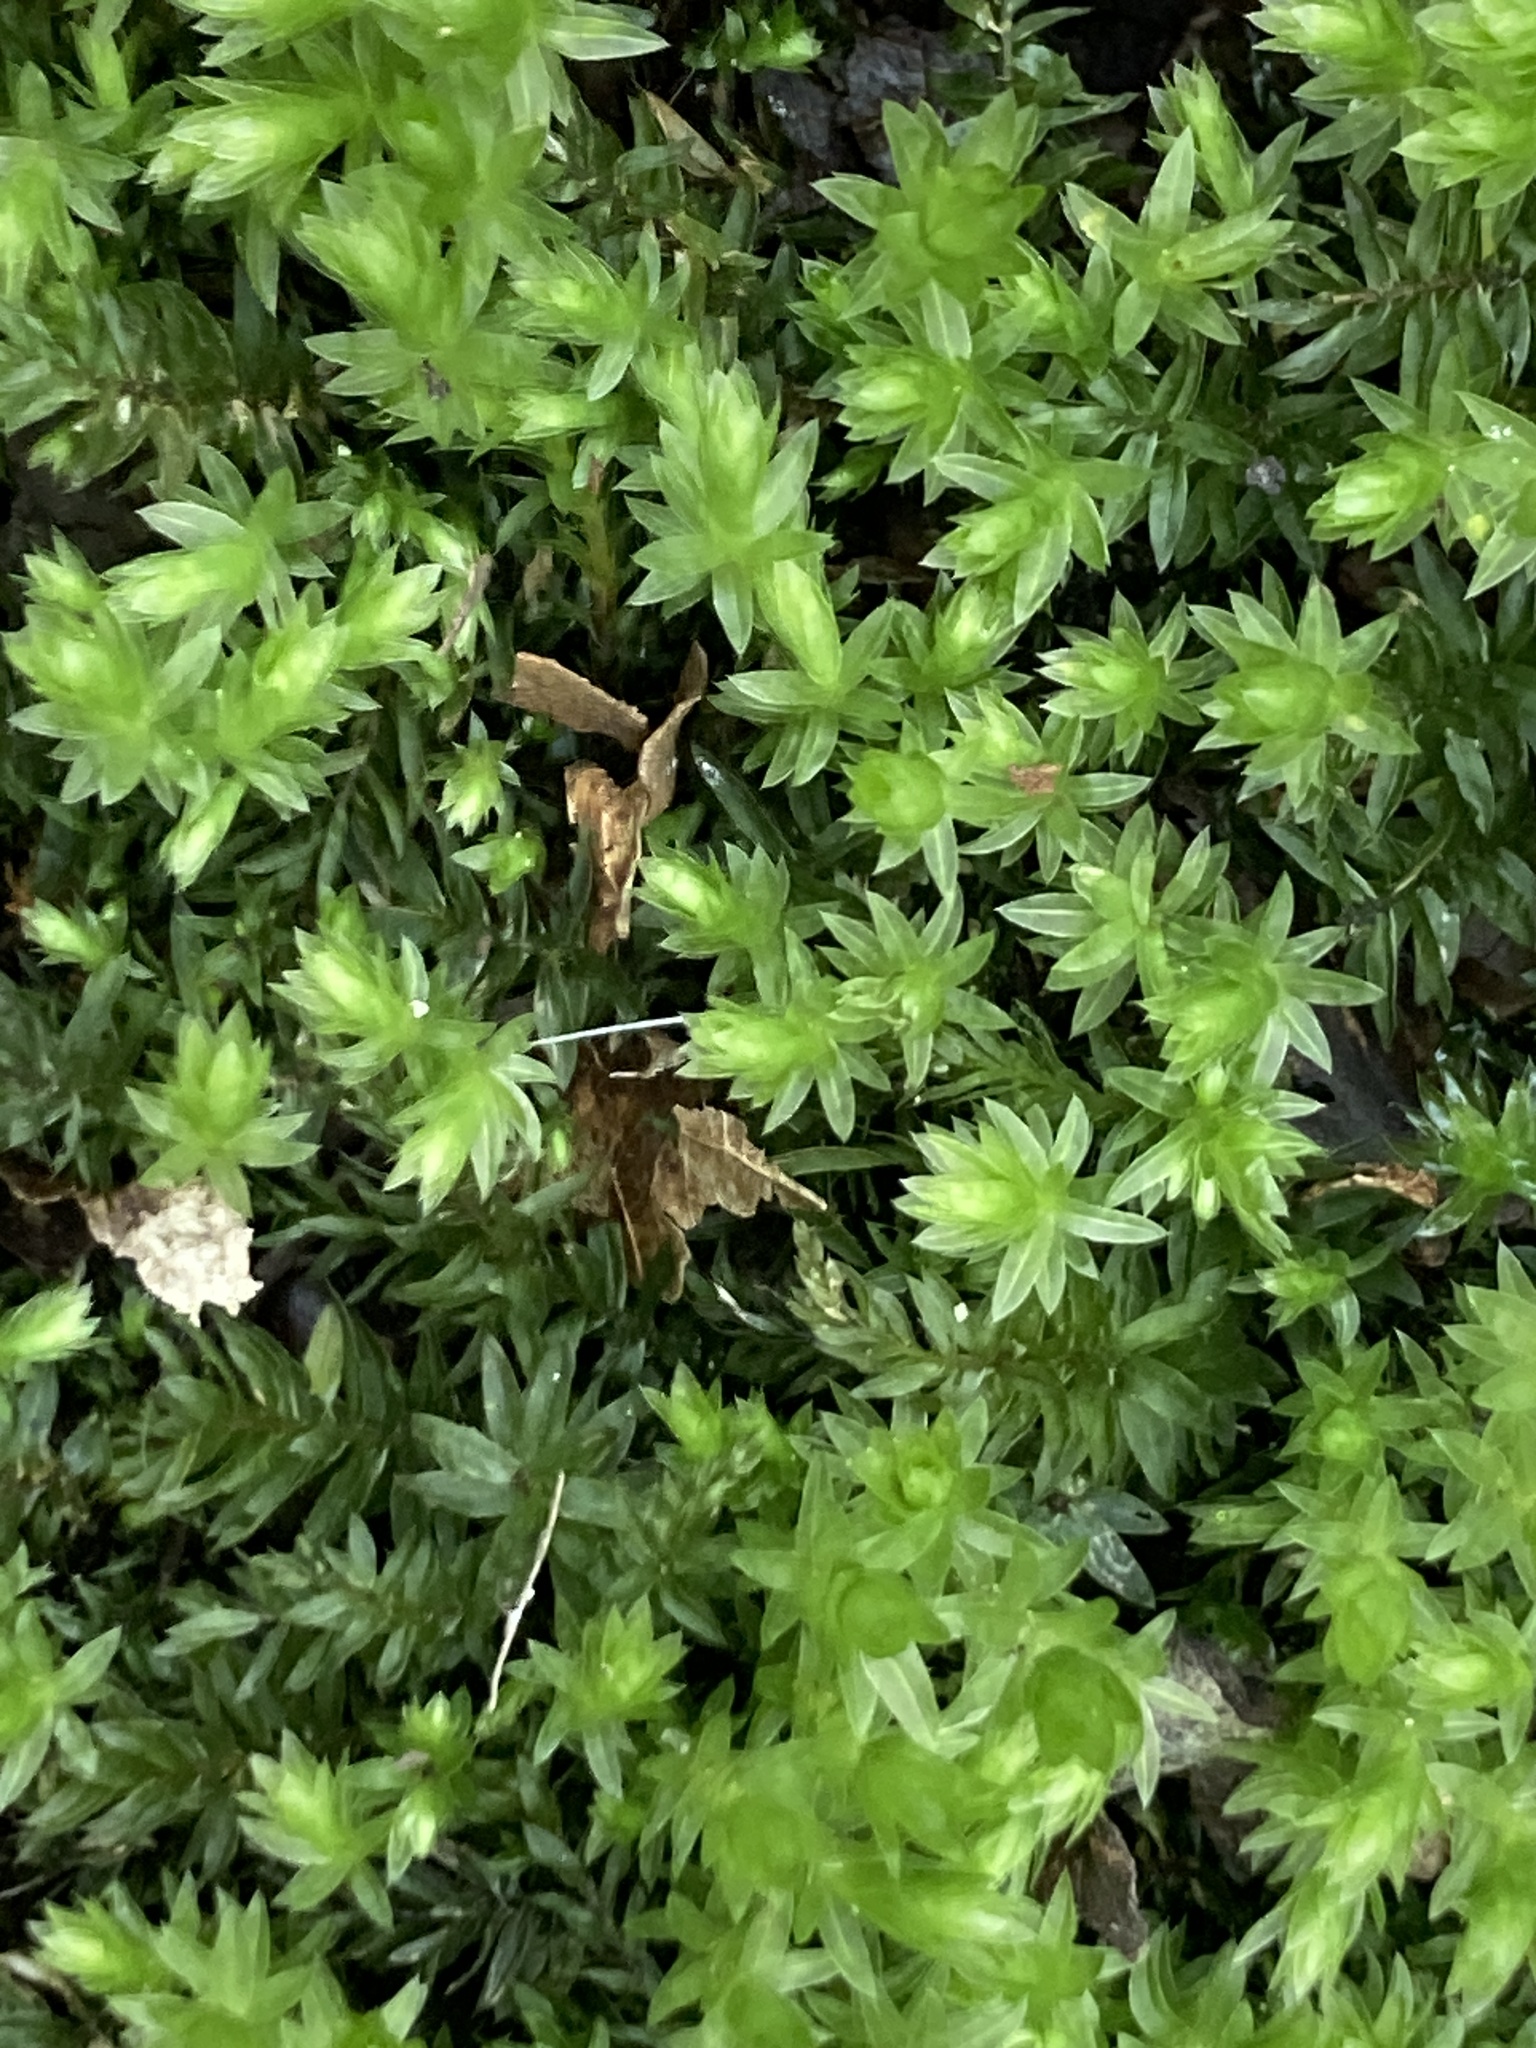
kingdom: Plantae
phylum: Bryophyta
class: Bryopsida
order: Bryales
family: Mniaceae
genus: Mnium
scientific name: Mnium hornum
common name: Swan's-neck leafy moss
